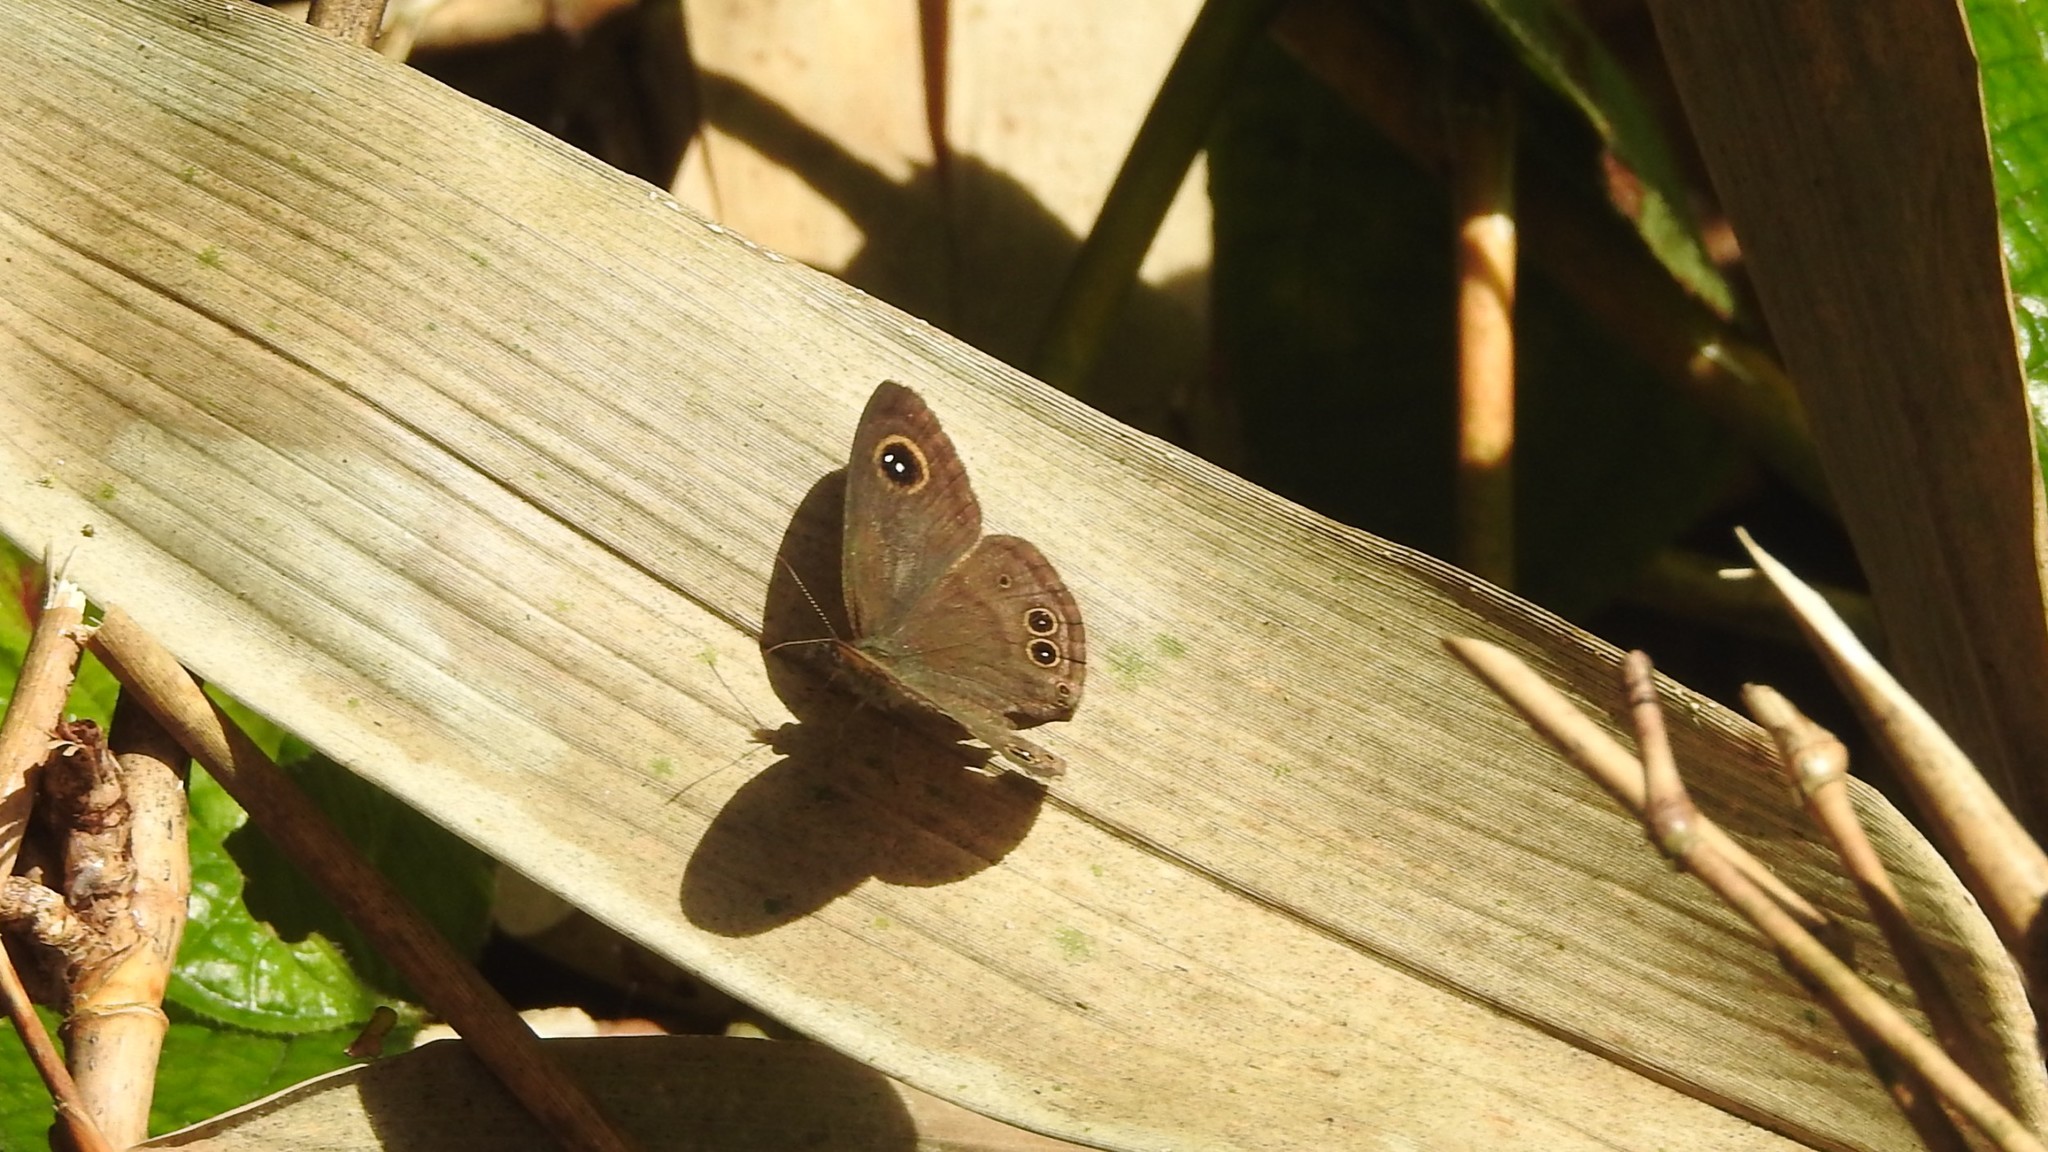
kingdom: Animalia
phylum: Arthropoda
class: Insecta
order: Lepidoptera
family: Nymphalidae
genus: Ypthima
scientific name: Ypthima baldus
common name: Common five-ring
